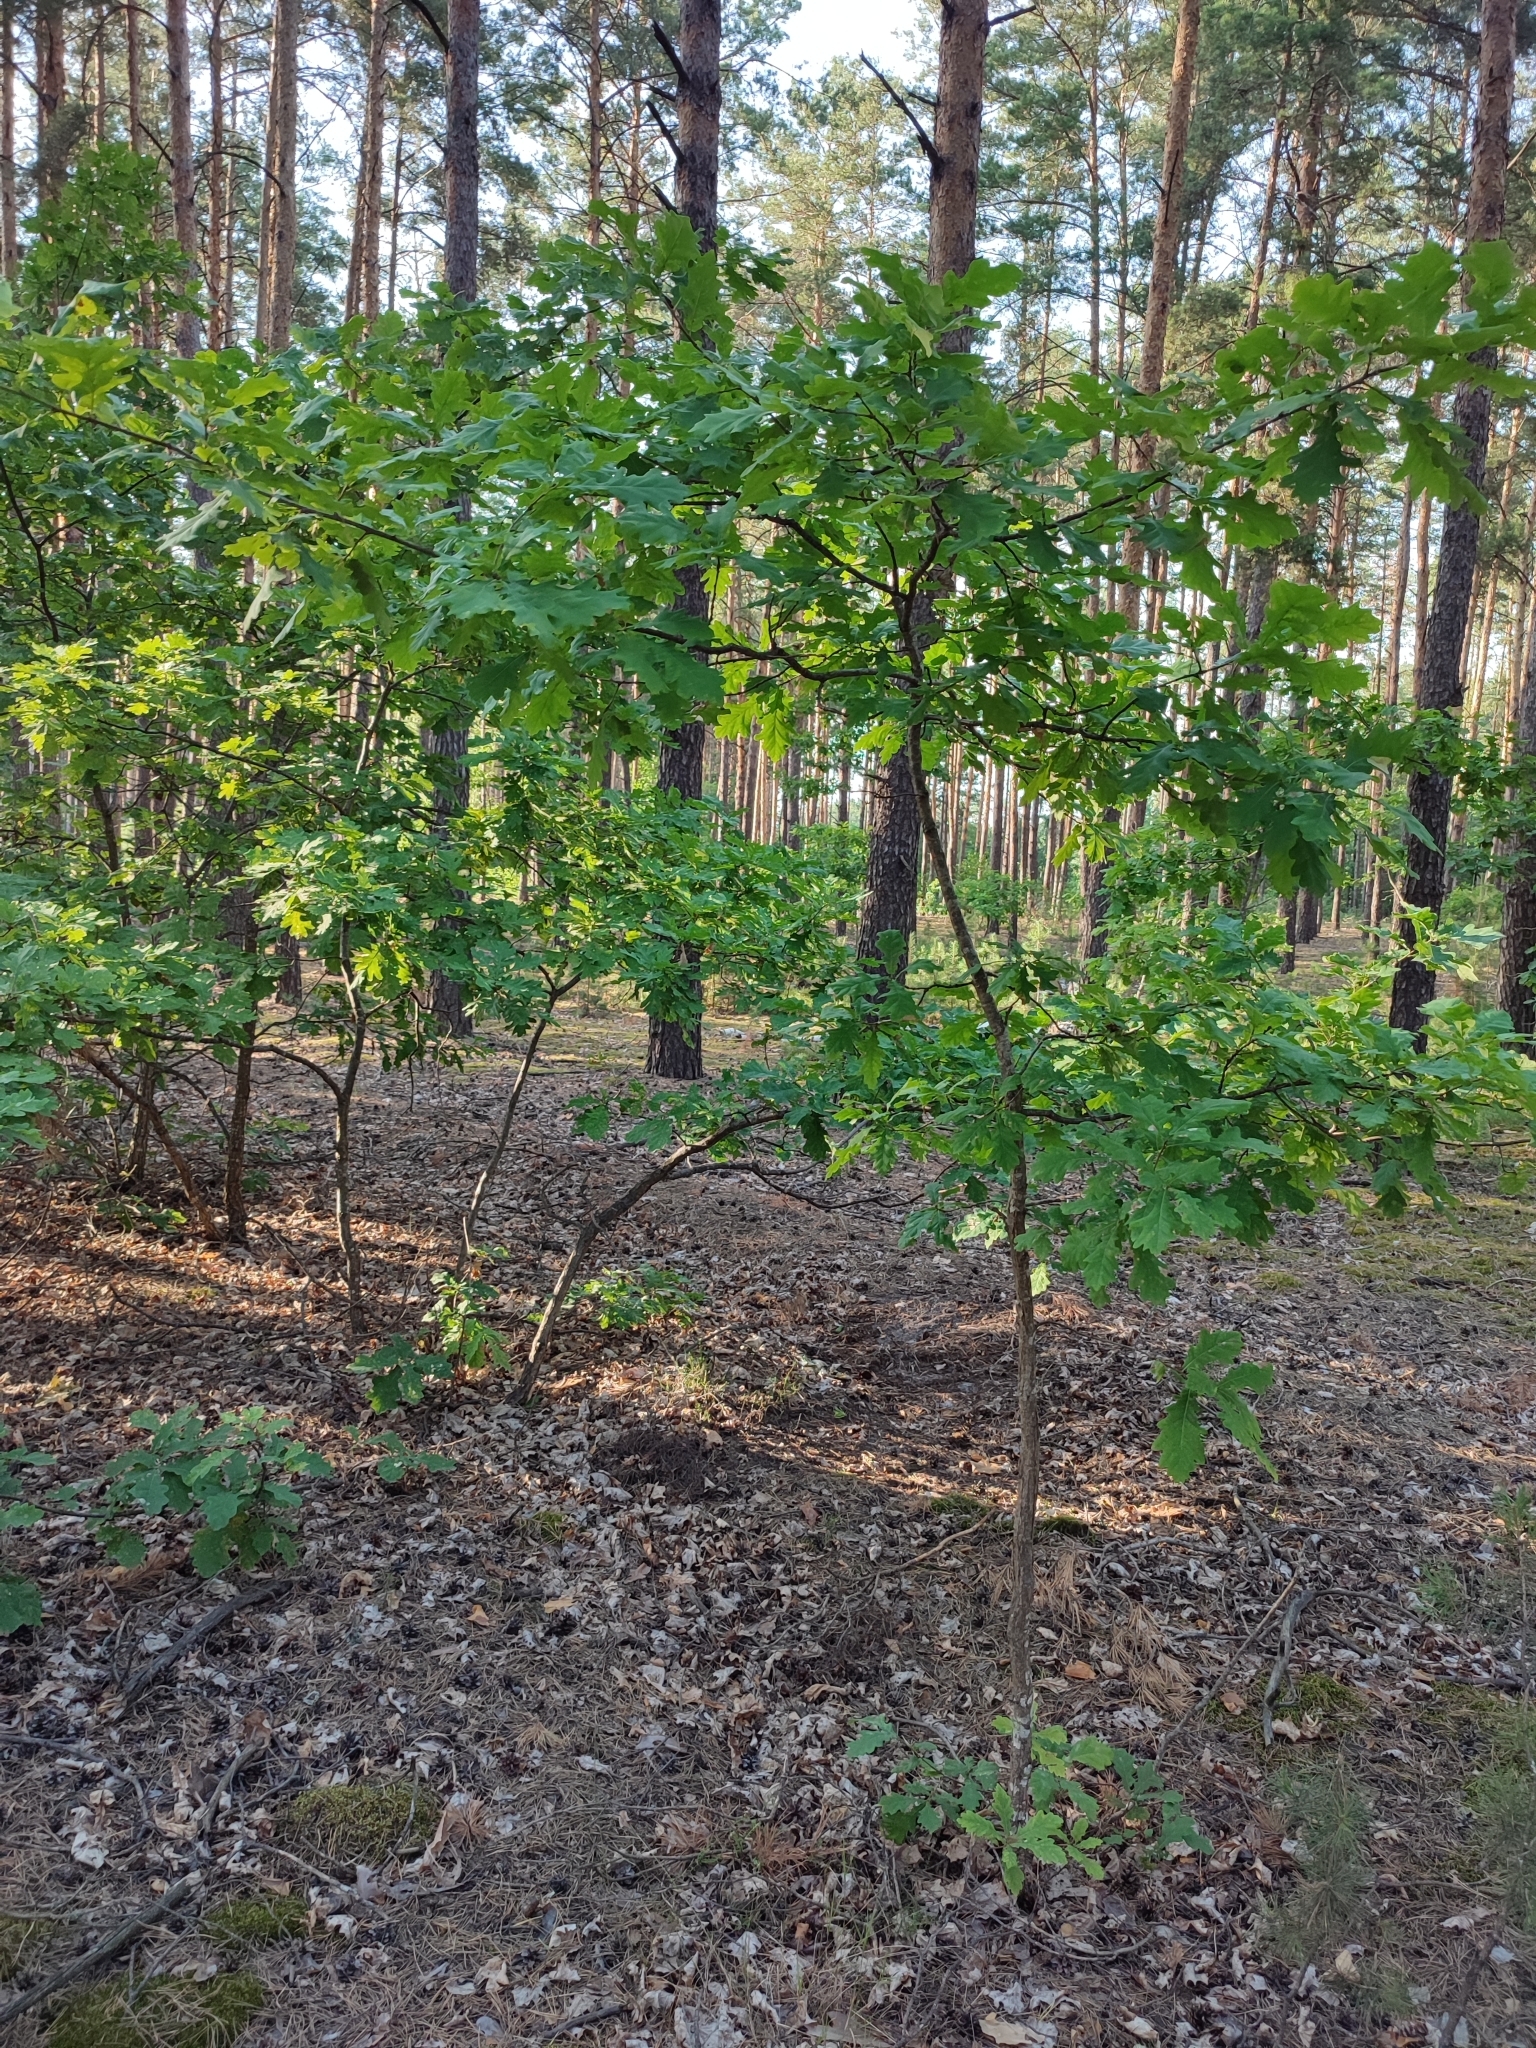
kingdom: Plantae
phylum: Tracheophyta
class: Magnoliopsida
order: Fagales
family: Fagaceae
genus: Quercus
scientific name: Quercus robur
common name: Pedunculate oak
